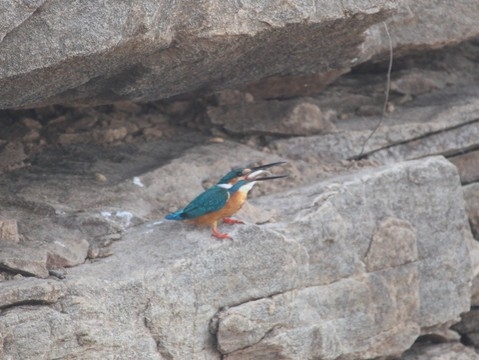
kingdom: Animalia
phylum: Chordata
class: Aves
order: Coraciiformes
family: Alcedinidae
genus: Alcedo
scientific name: Alcedo atthis
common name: Common kingfisher
